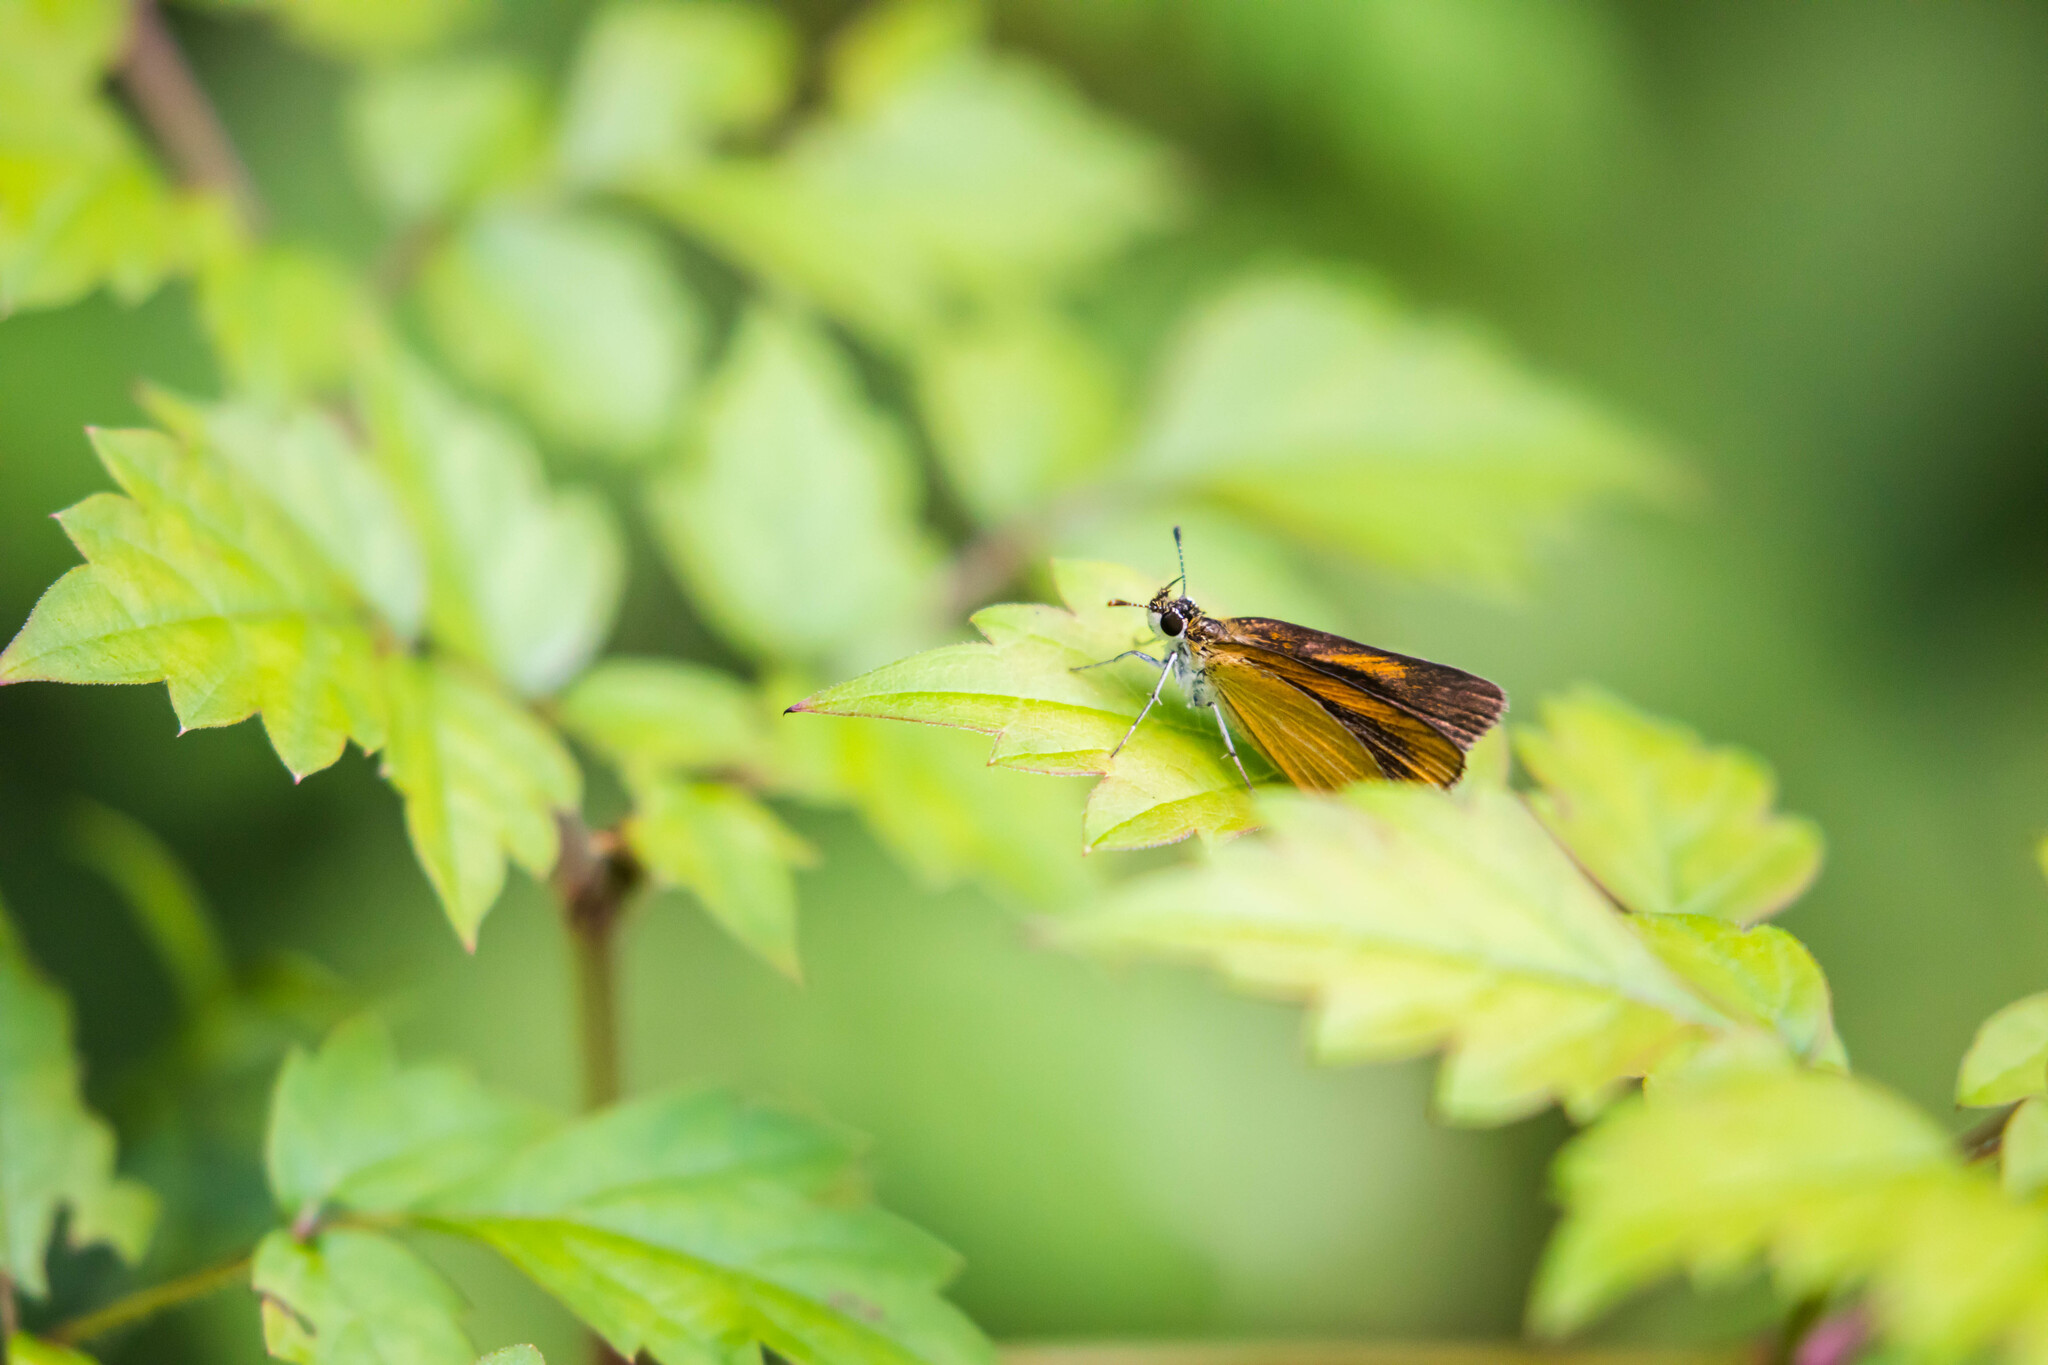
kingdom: Animalia
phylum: Arthropoda
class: Insecta
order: Lepidoptera
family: Hesperiidae
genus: Ancyloxypha
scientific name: Ancyloxypha numitor
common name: Least skipper
